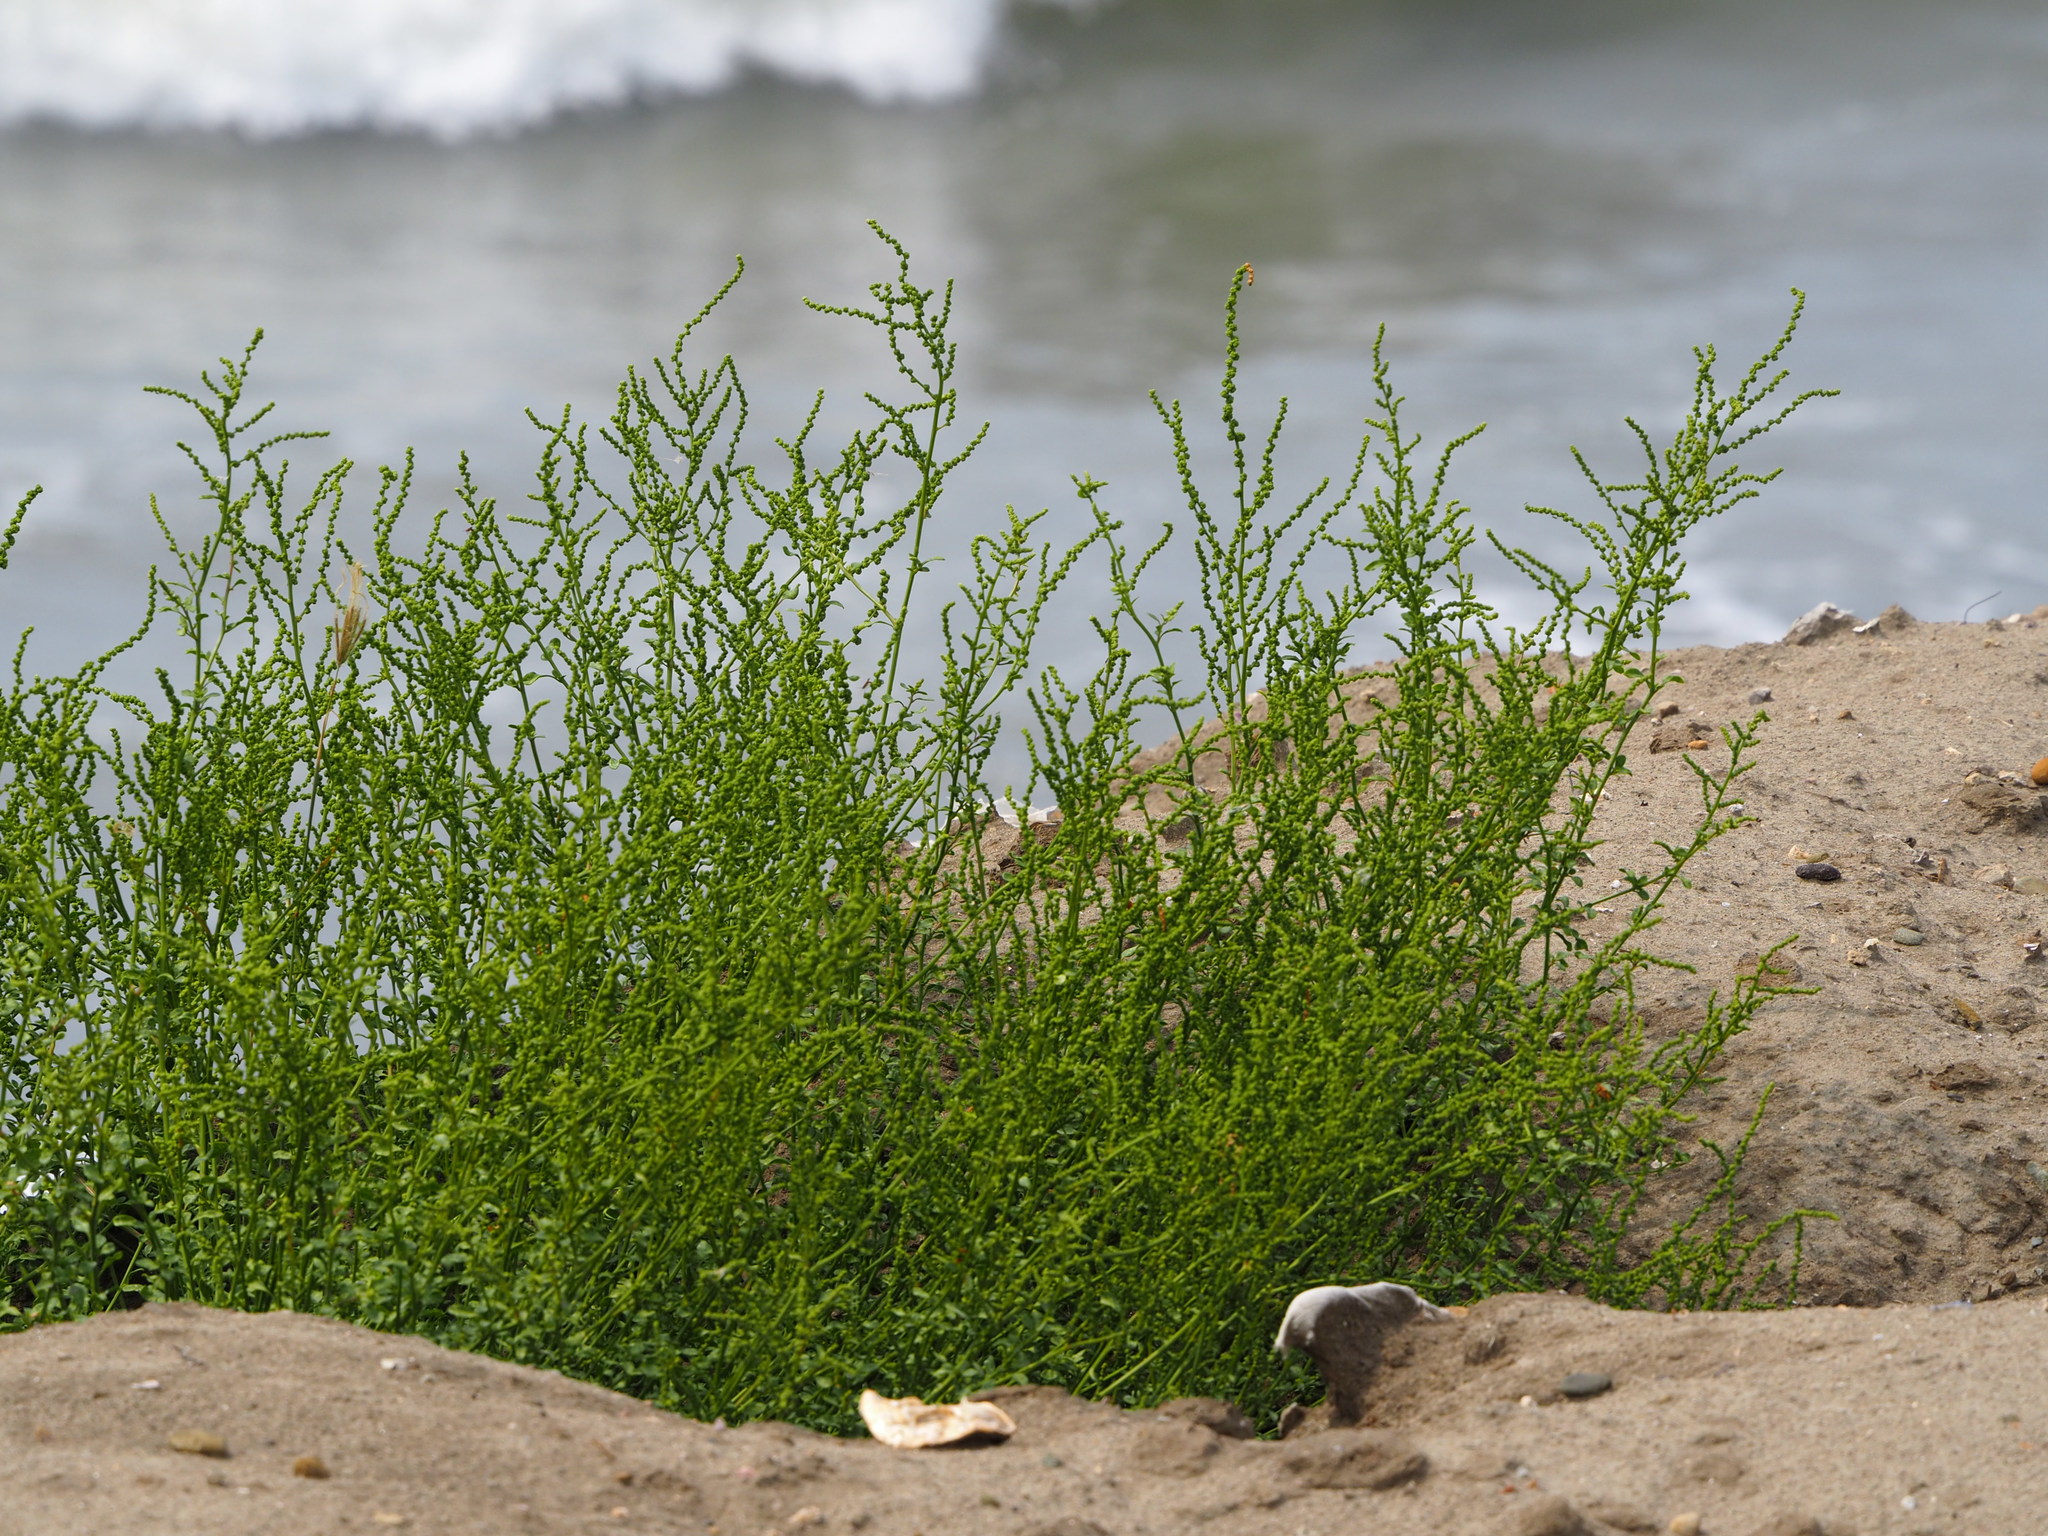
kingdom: Plantae
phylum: Tracheophyta
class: Magnoliopsida
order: Caryophyllales
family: Amaranthaceae
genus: Suaeda
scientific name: Suaeda maritima
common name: Annual sea-blite
